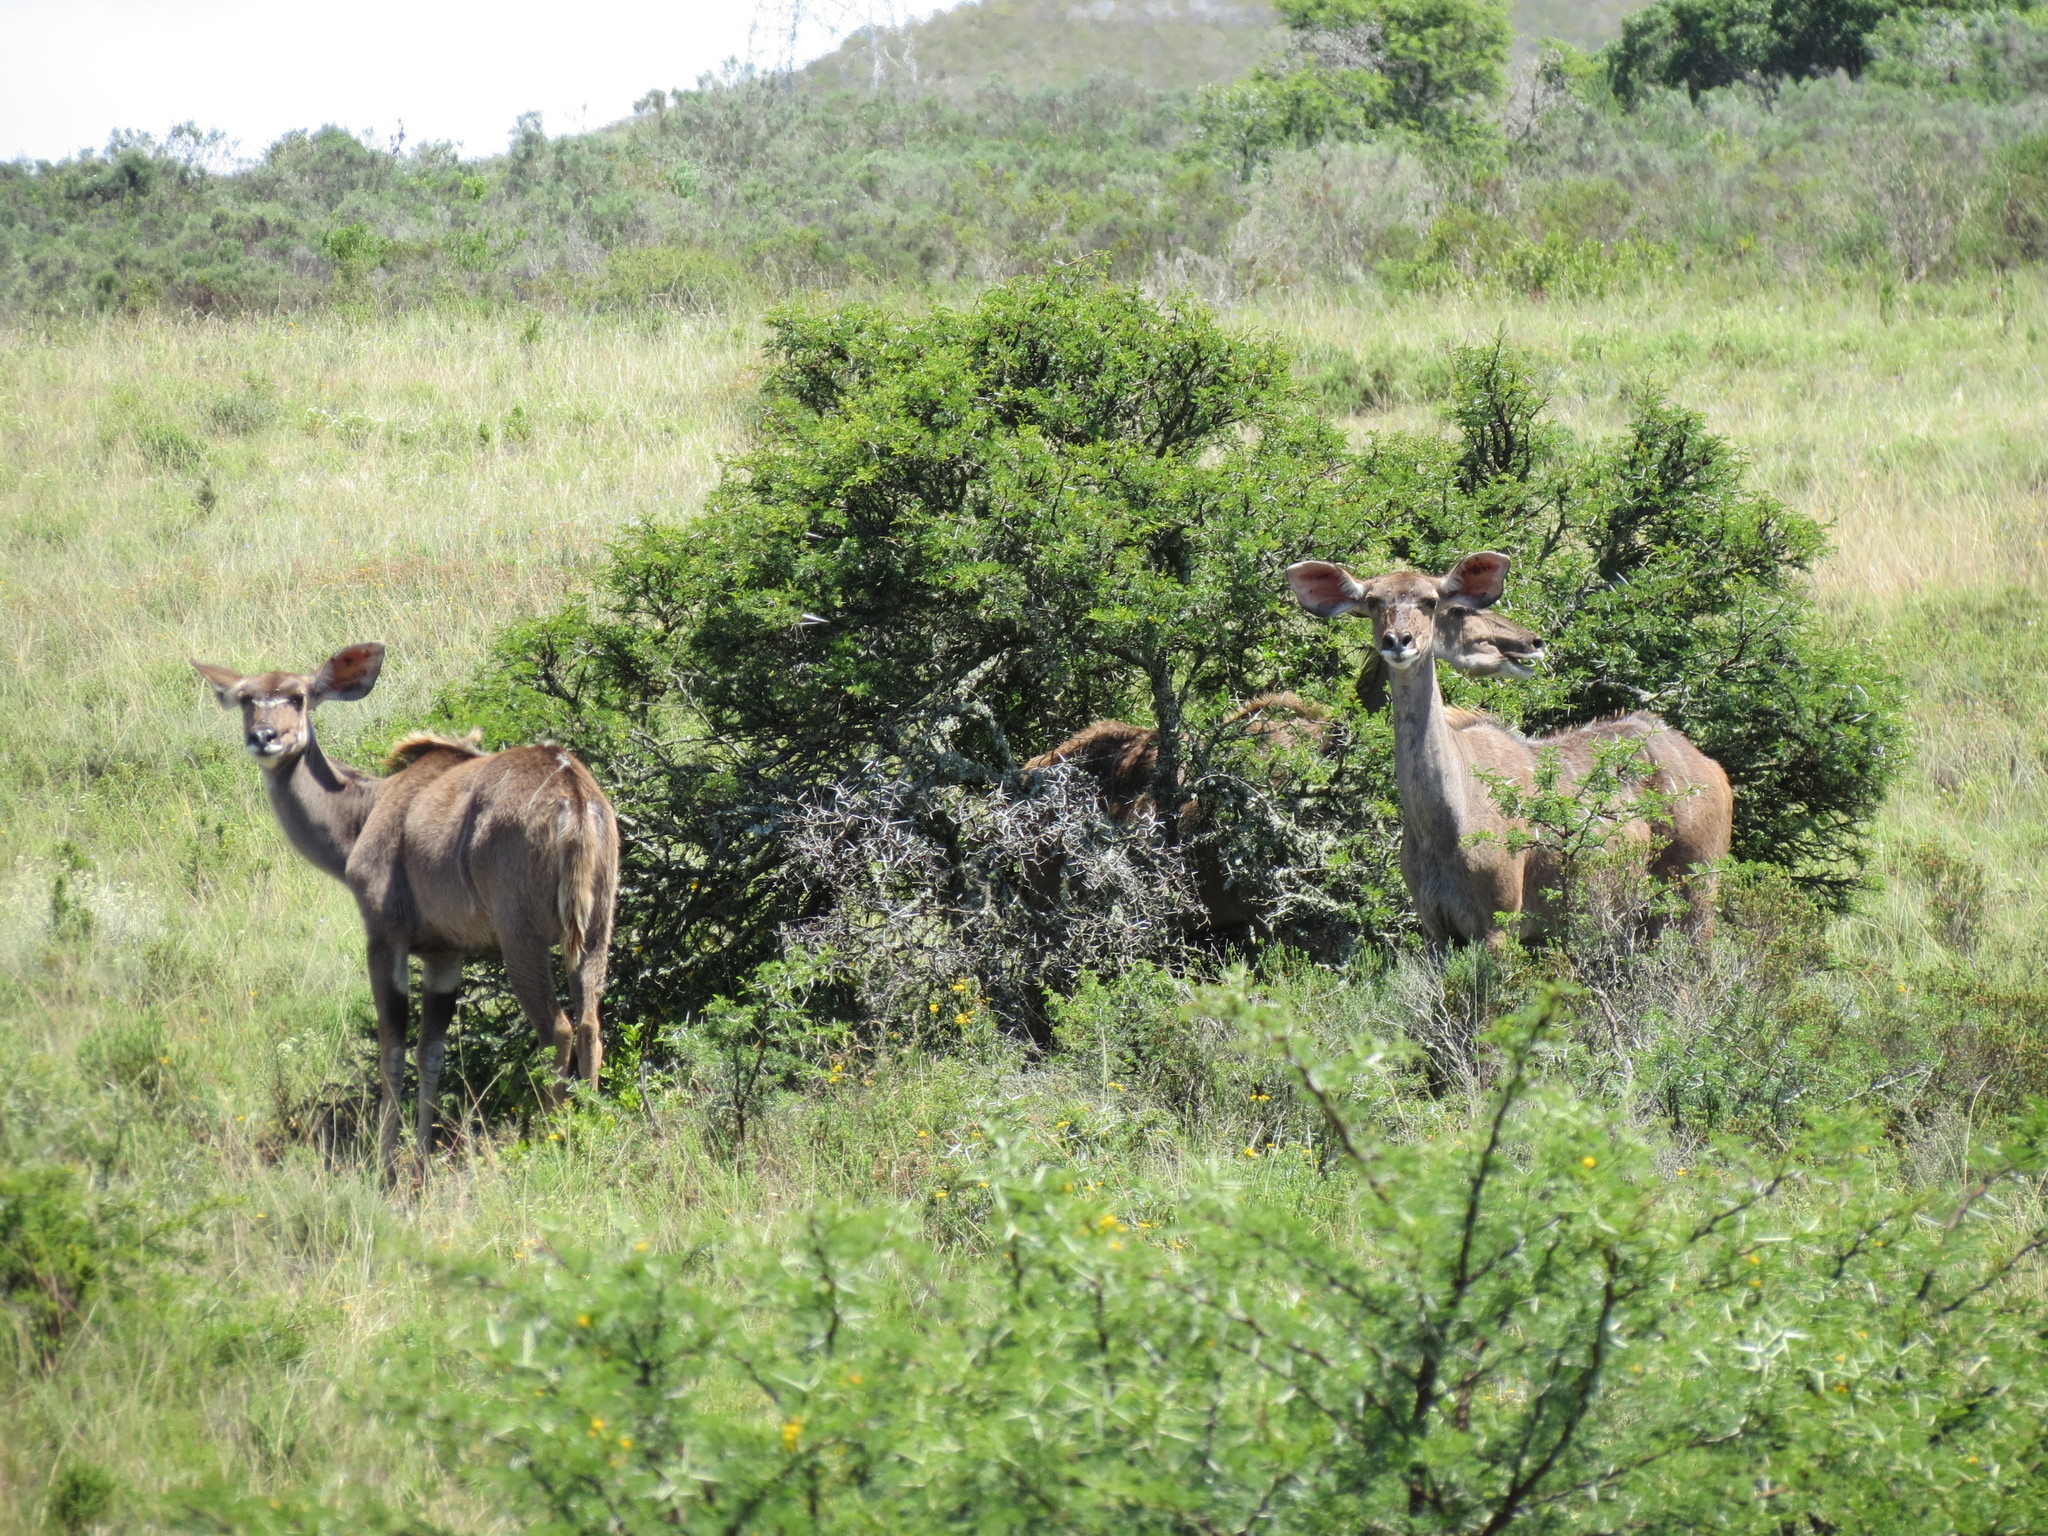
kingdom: Animalia
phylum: Chordata
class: Mammalia
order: Artiodactyla
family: Bovidae
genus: Tragelaphus
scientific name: Tragelaphus strepsiceros
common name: Greater kudu
